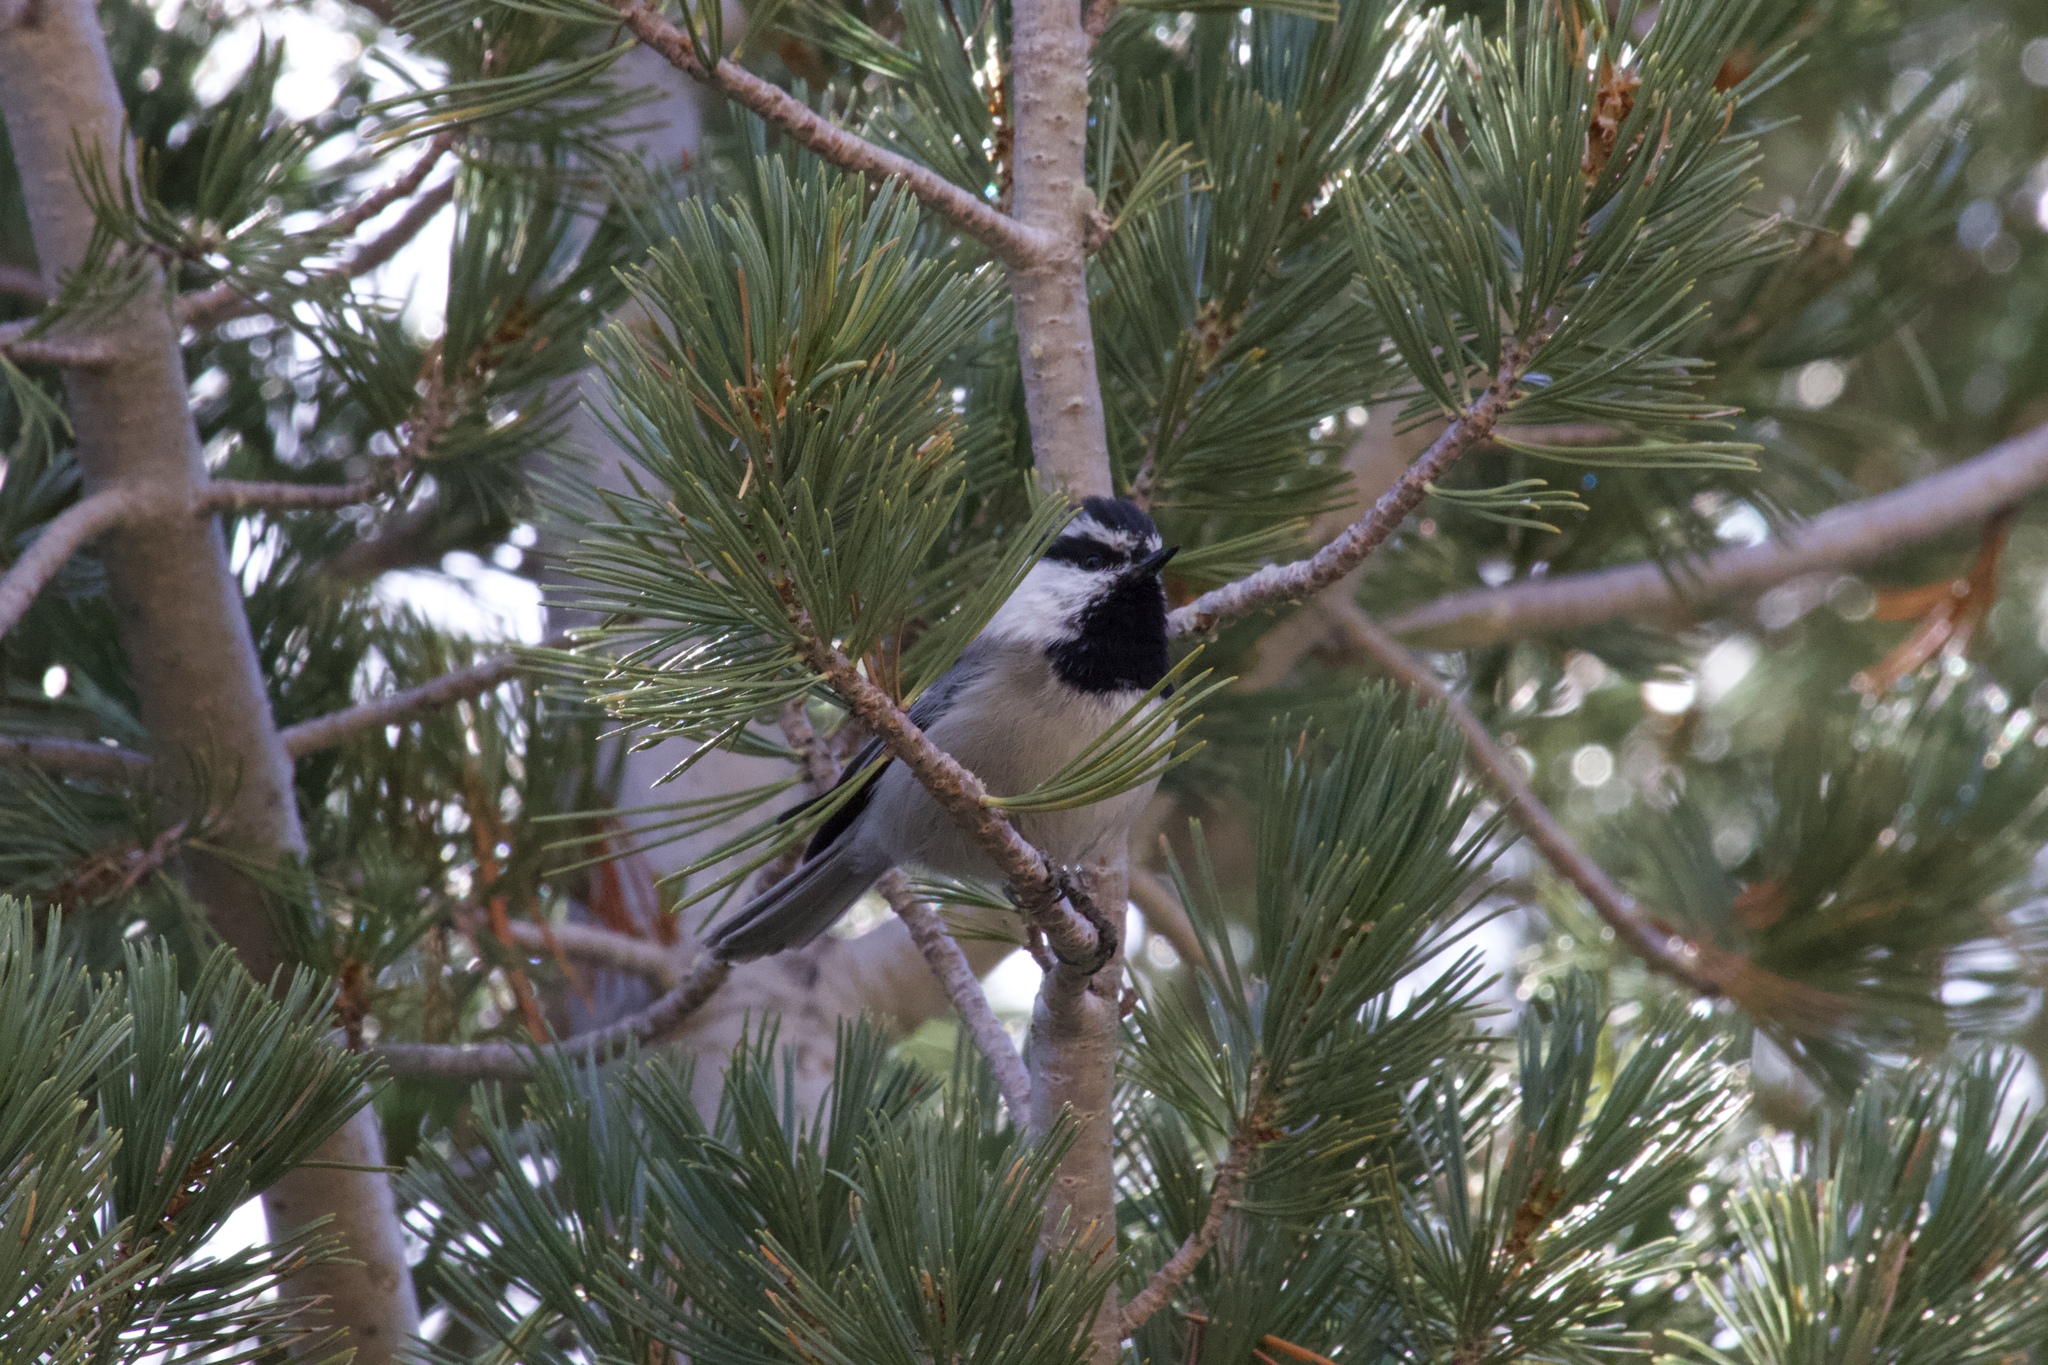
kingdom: Animalia
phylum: Chordata
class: Aves
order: Passeriformes
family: Paridae
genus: Poecile
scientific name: Poecile gambeli
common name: Mountain chickadee
